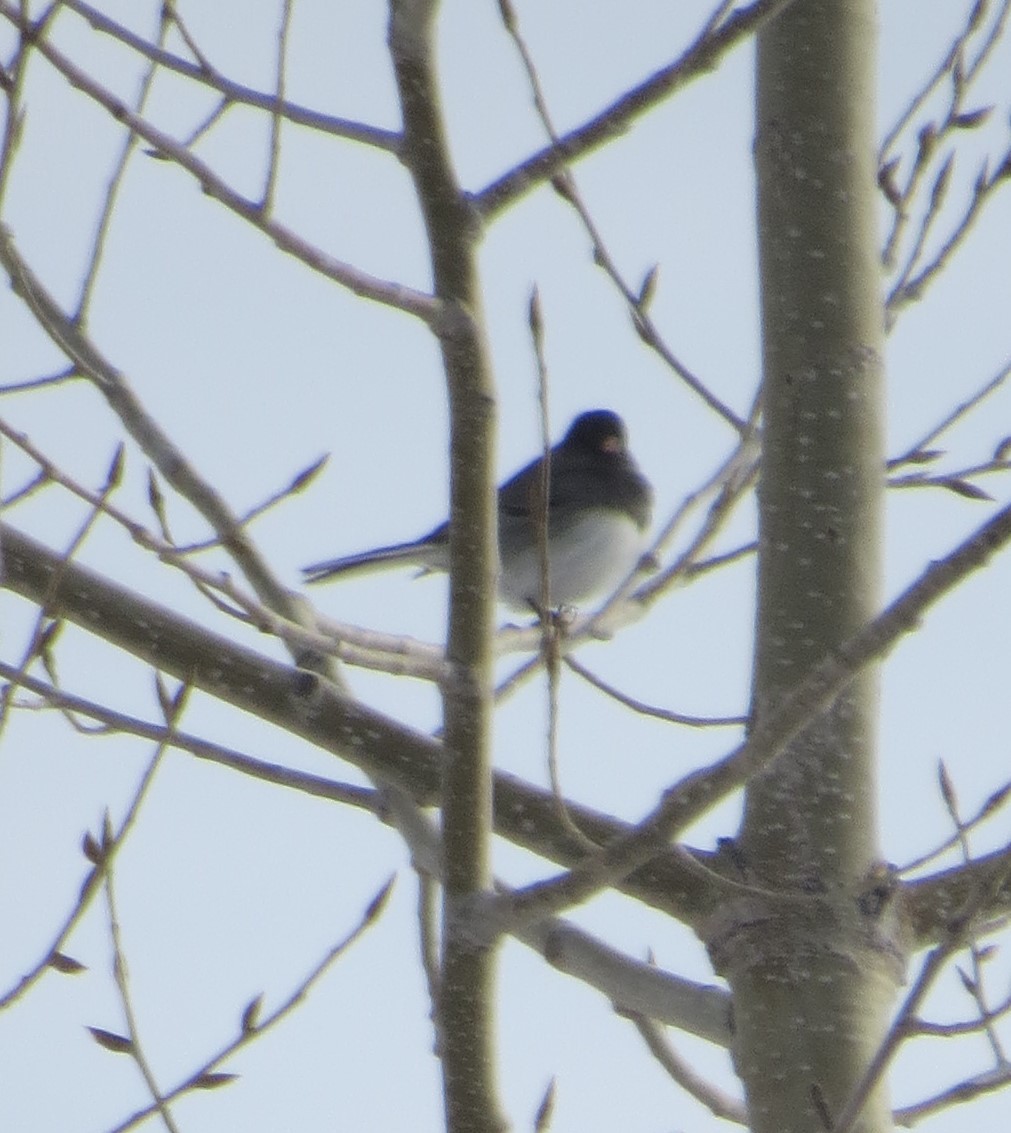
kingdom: Animalia
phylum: Chordata
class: Aves
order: Passeriformes
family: Passerellidae
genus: Junco
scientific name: Junco hyemalis
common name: Dark-eyed junco
